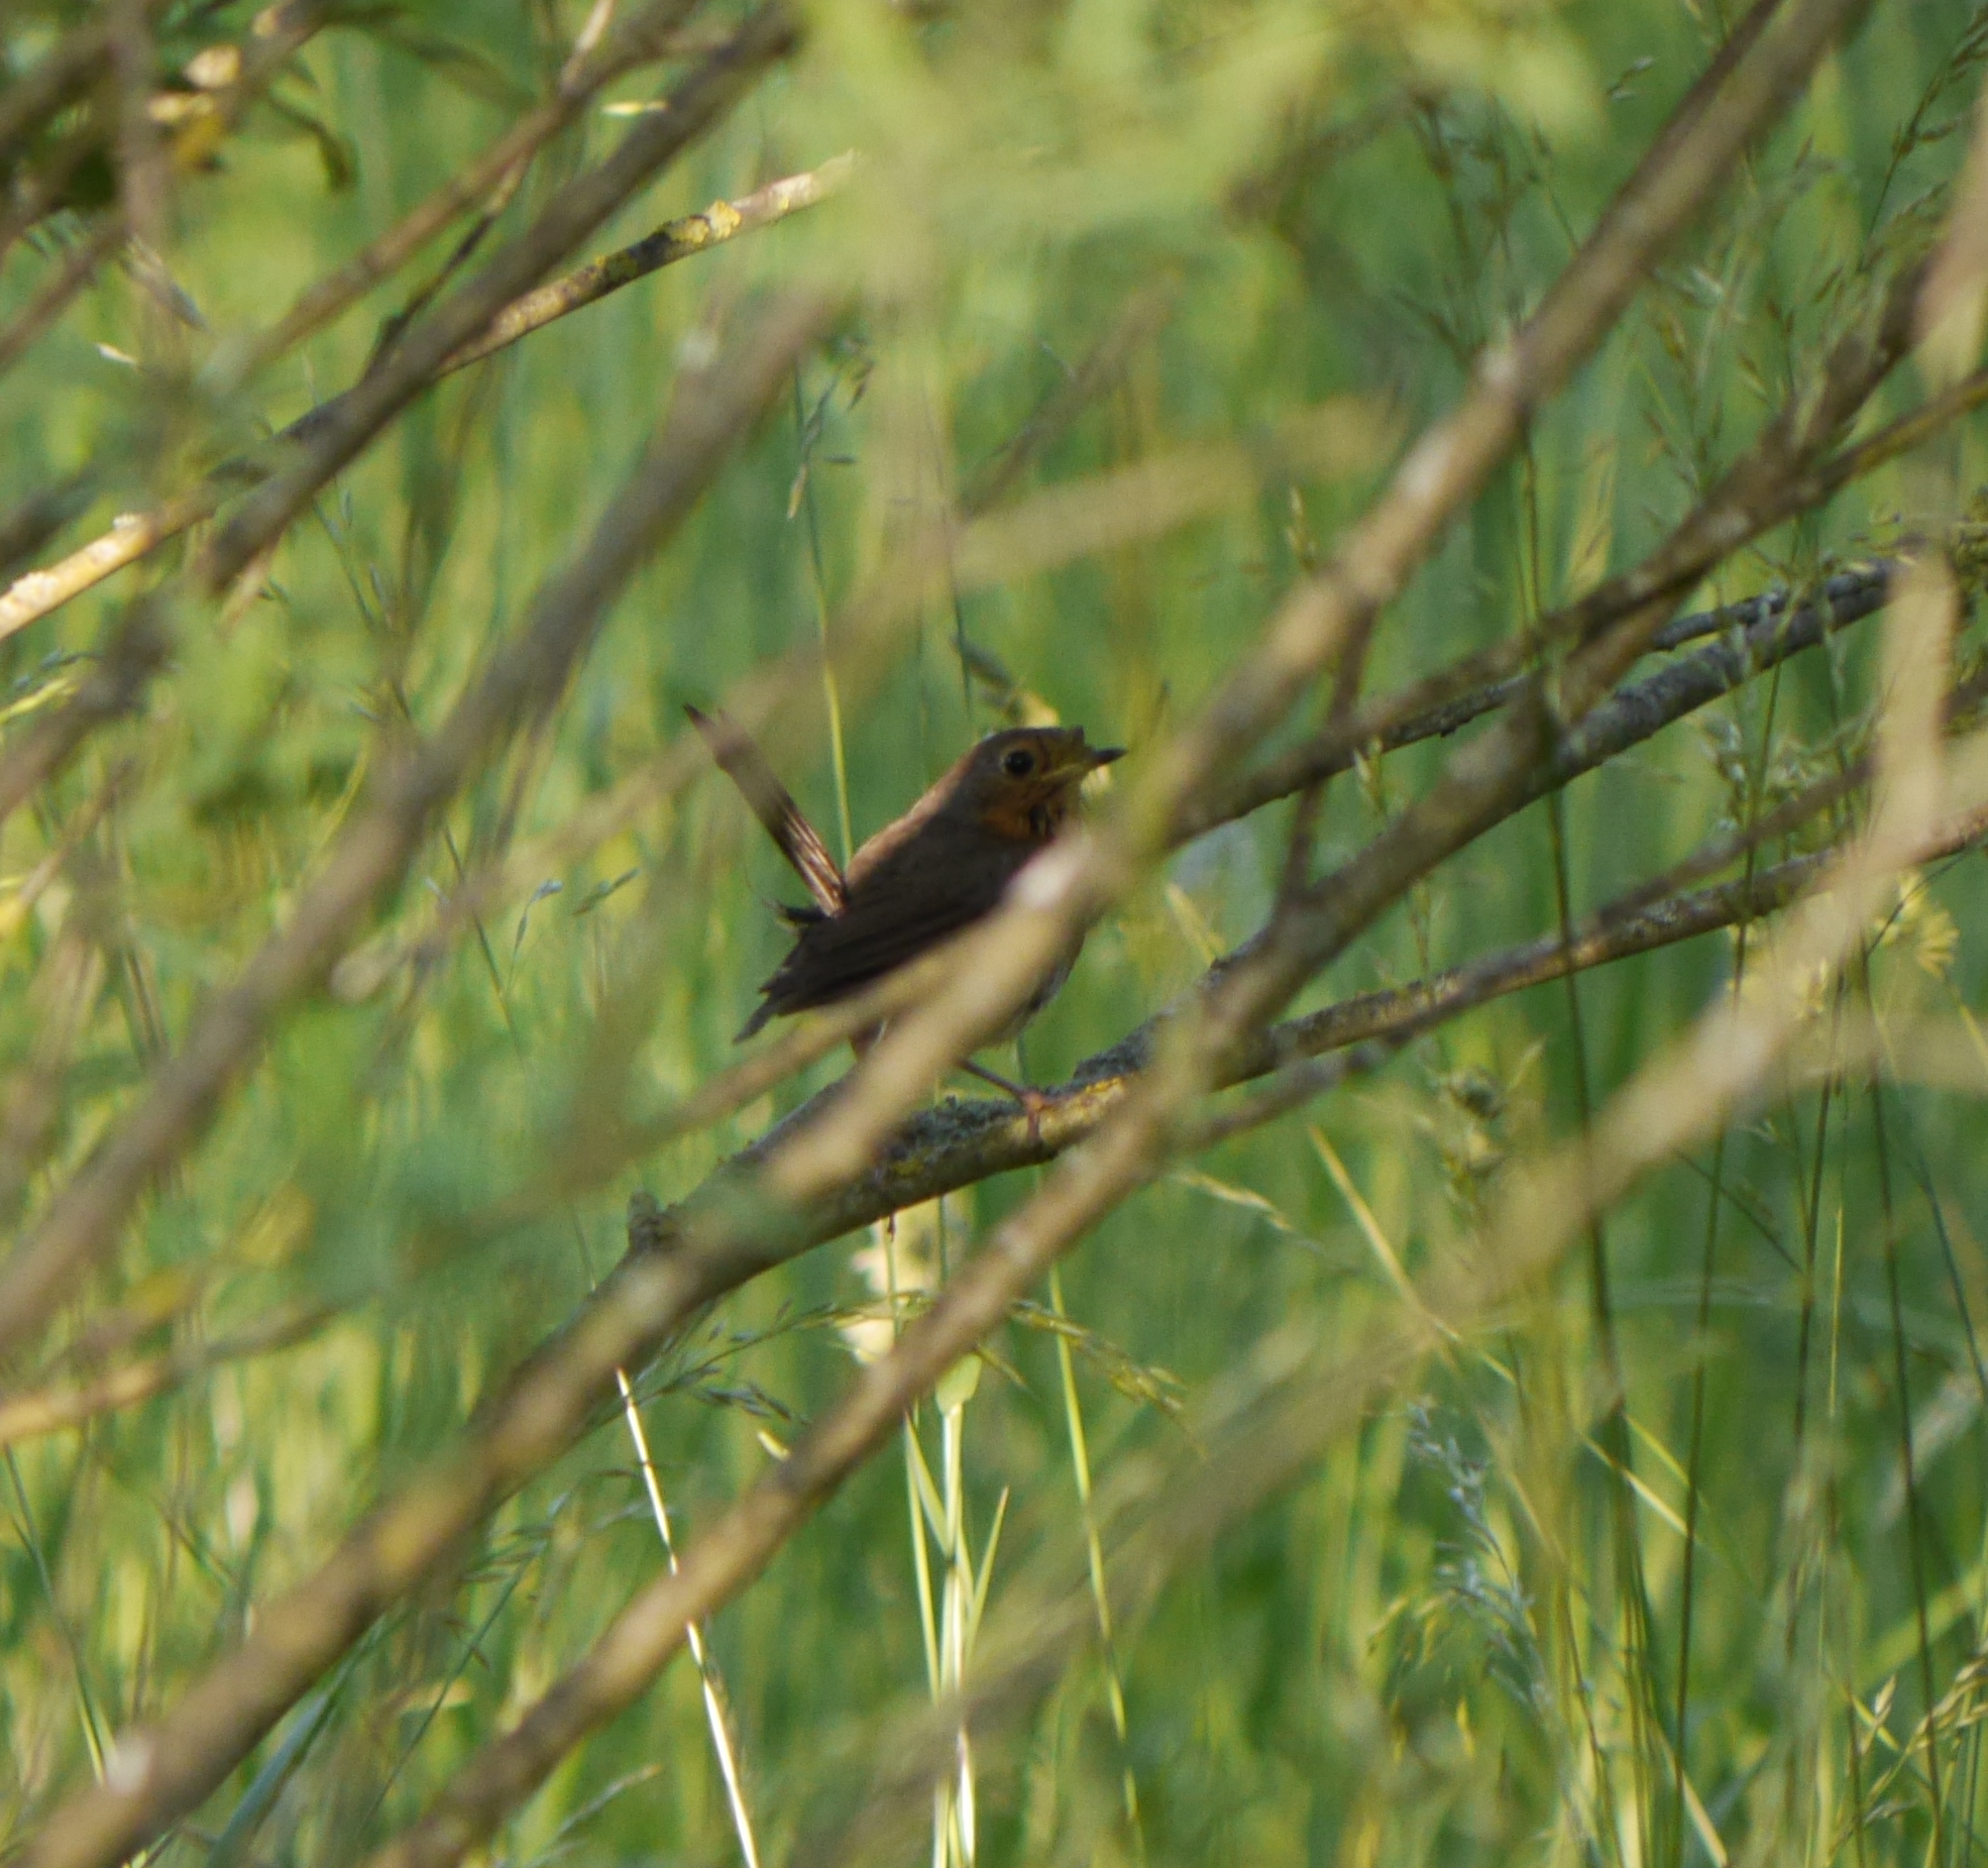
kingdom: Animalia
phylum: Chordata
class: Aves
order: Passeriformes
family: Muscicapidae
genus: Erithacus
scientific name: Erithacus rubecula
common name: European robin
